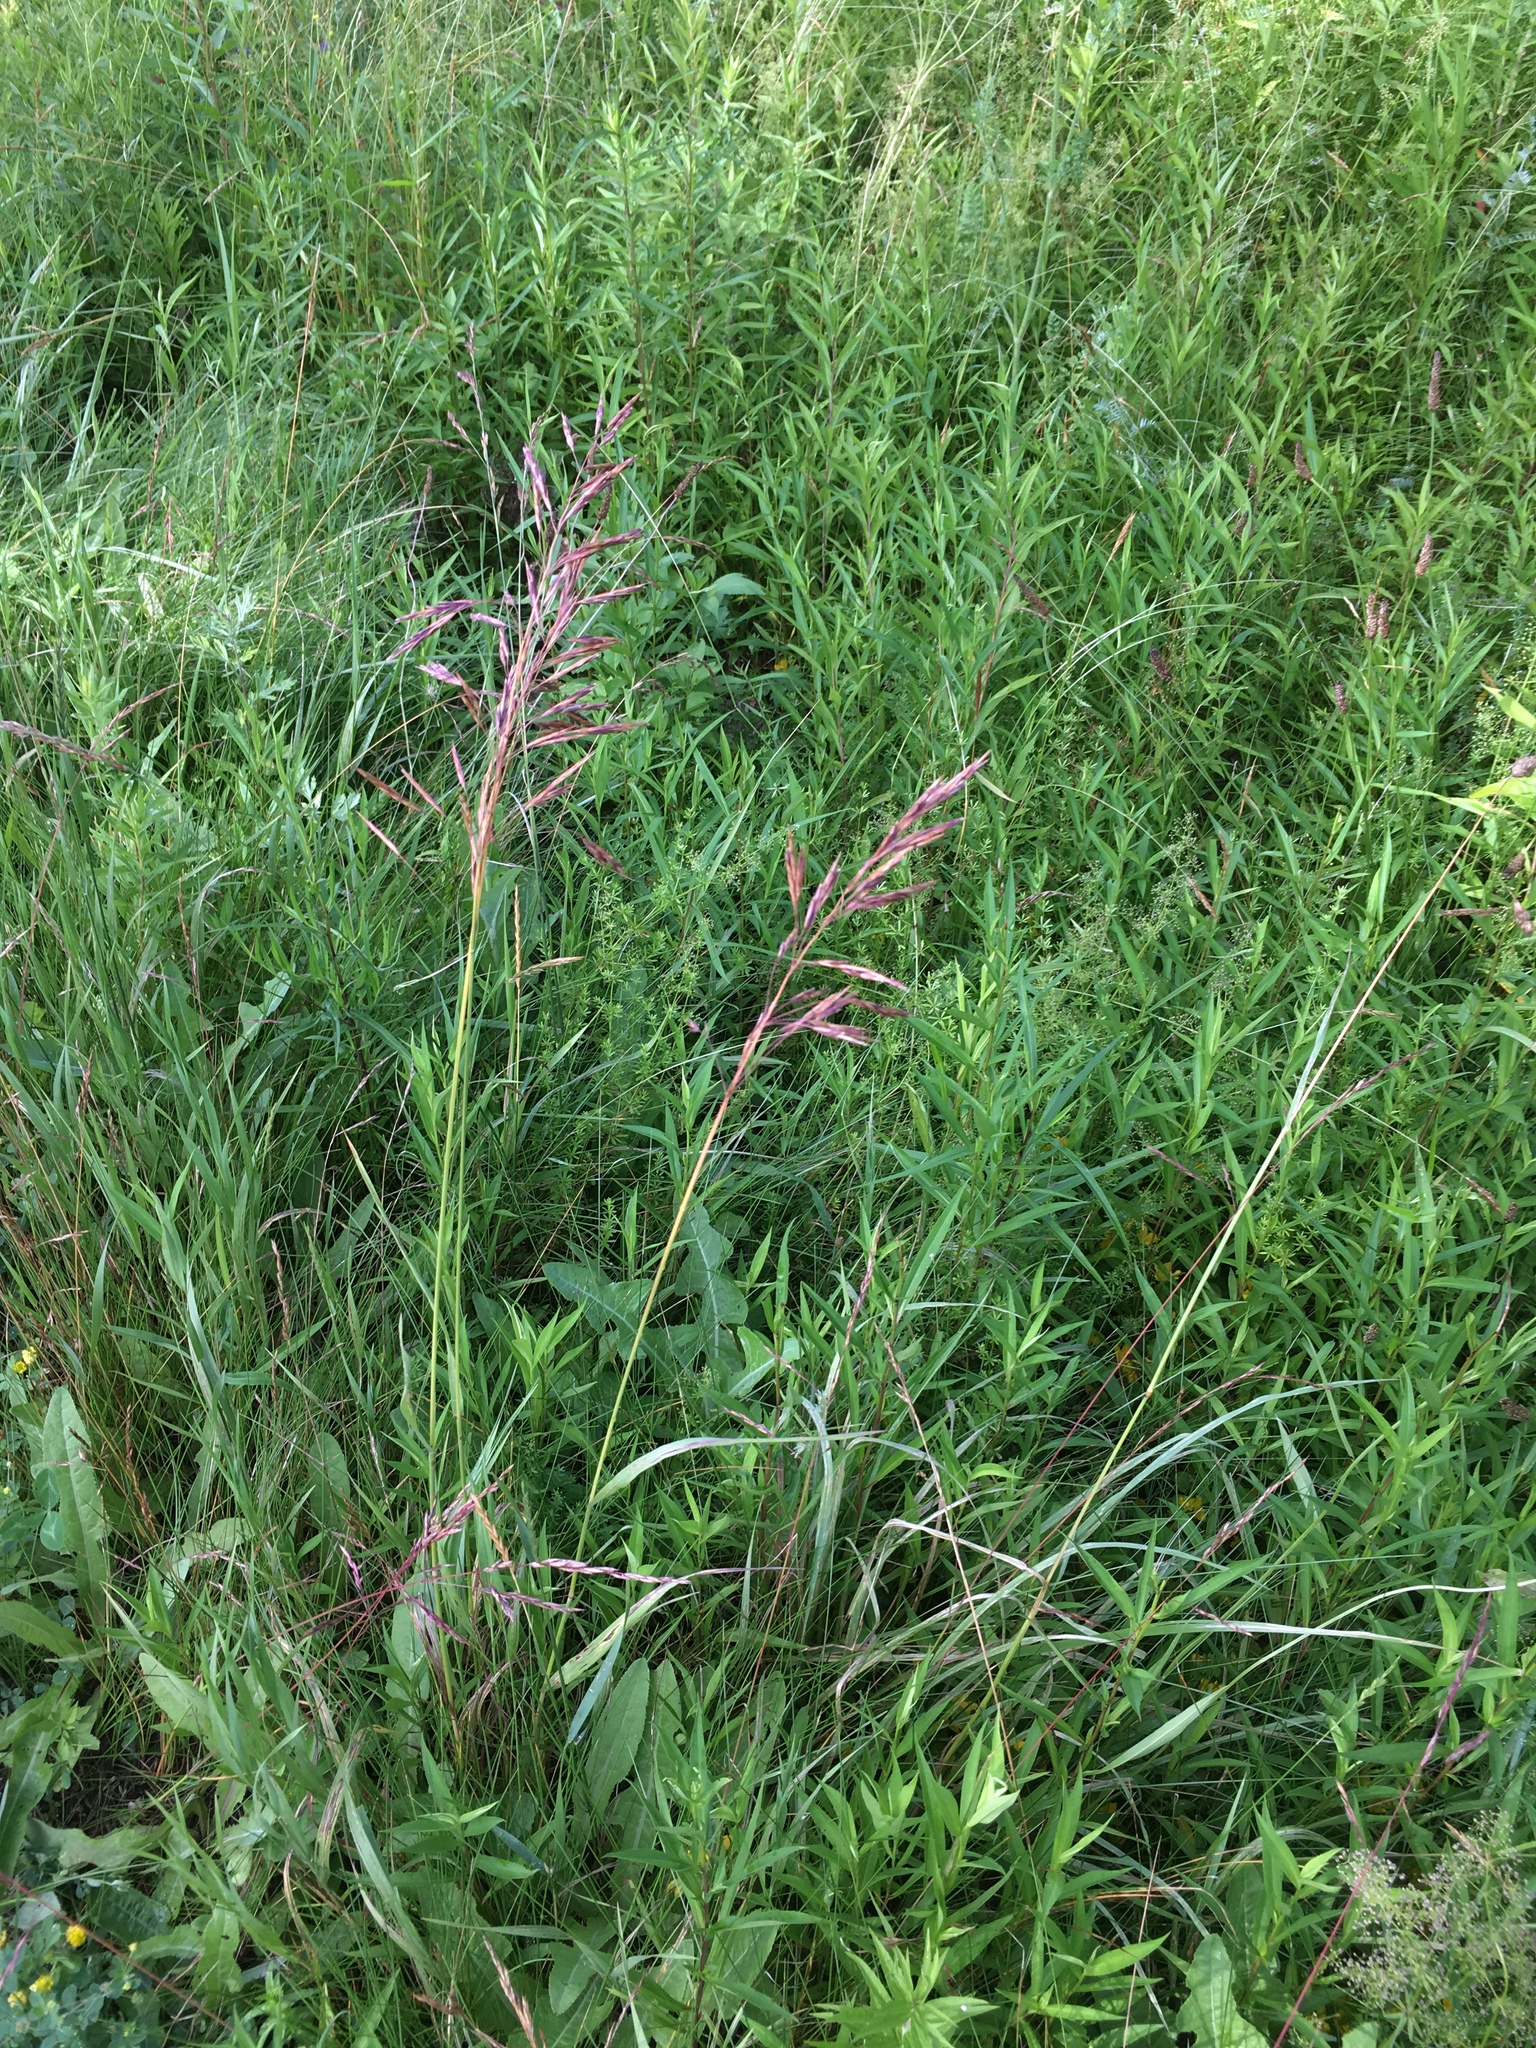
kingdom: Plantae
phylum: Tracheophyta
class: Liliopsida
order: Poales
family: Poaceae
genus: Bromus
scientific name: Bromus inermis
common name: Smooth brome
